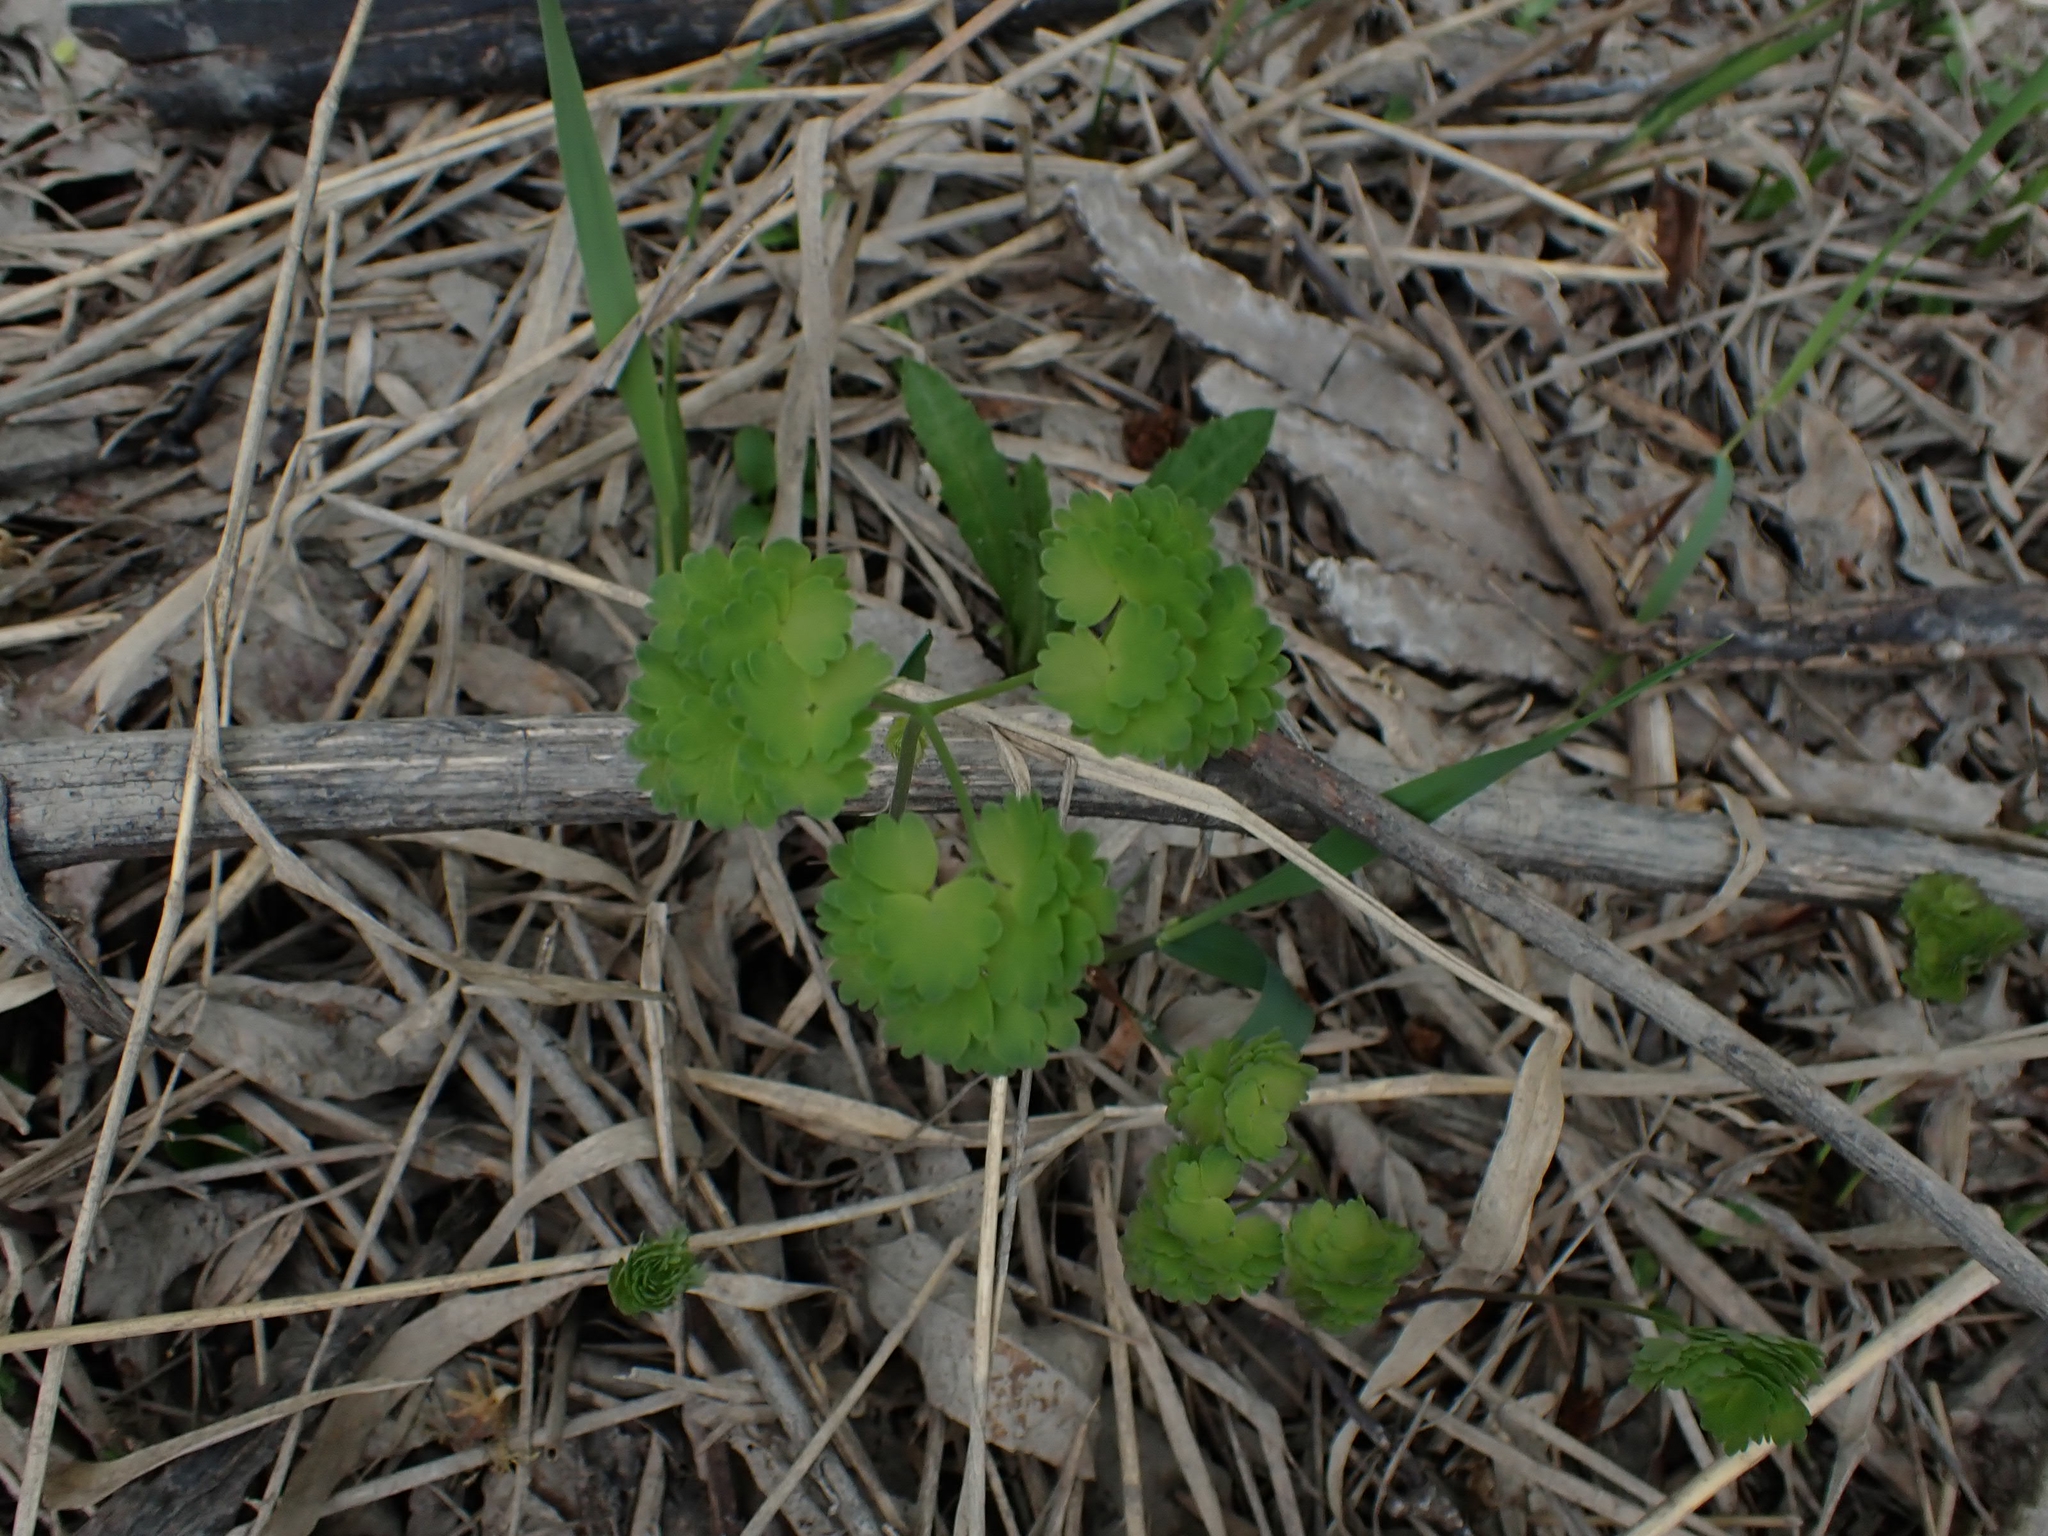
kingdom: Plantae
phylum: Tracheophyta
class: Magnoliopsida
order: Ranunculales
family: Ranunculaceae
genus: Thalictrum
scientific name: Thalictrum venulosum
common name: Early meadow-rue
